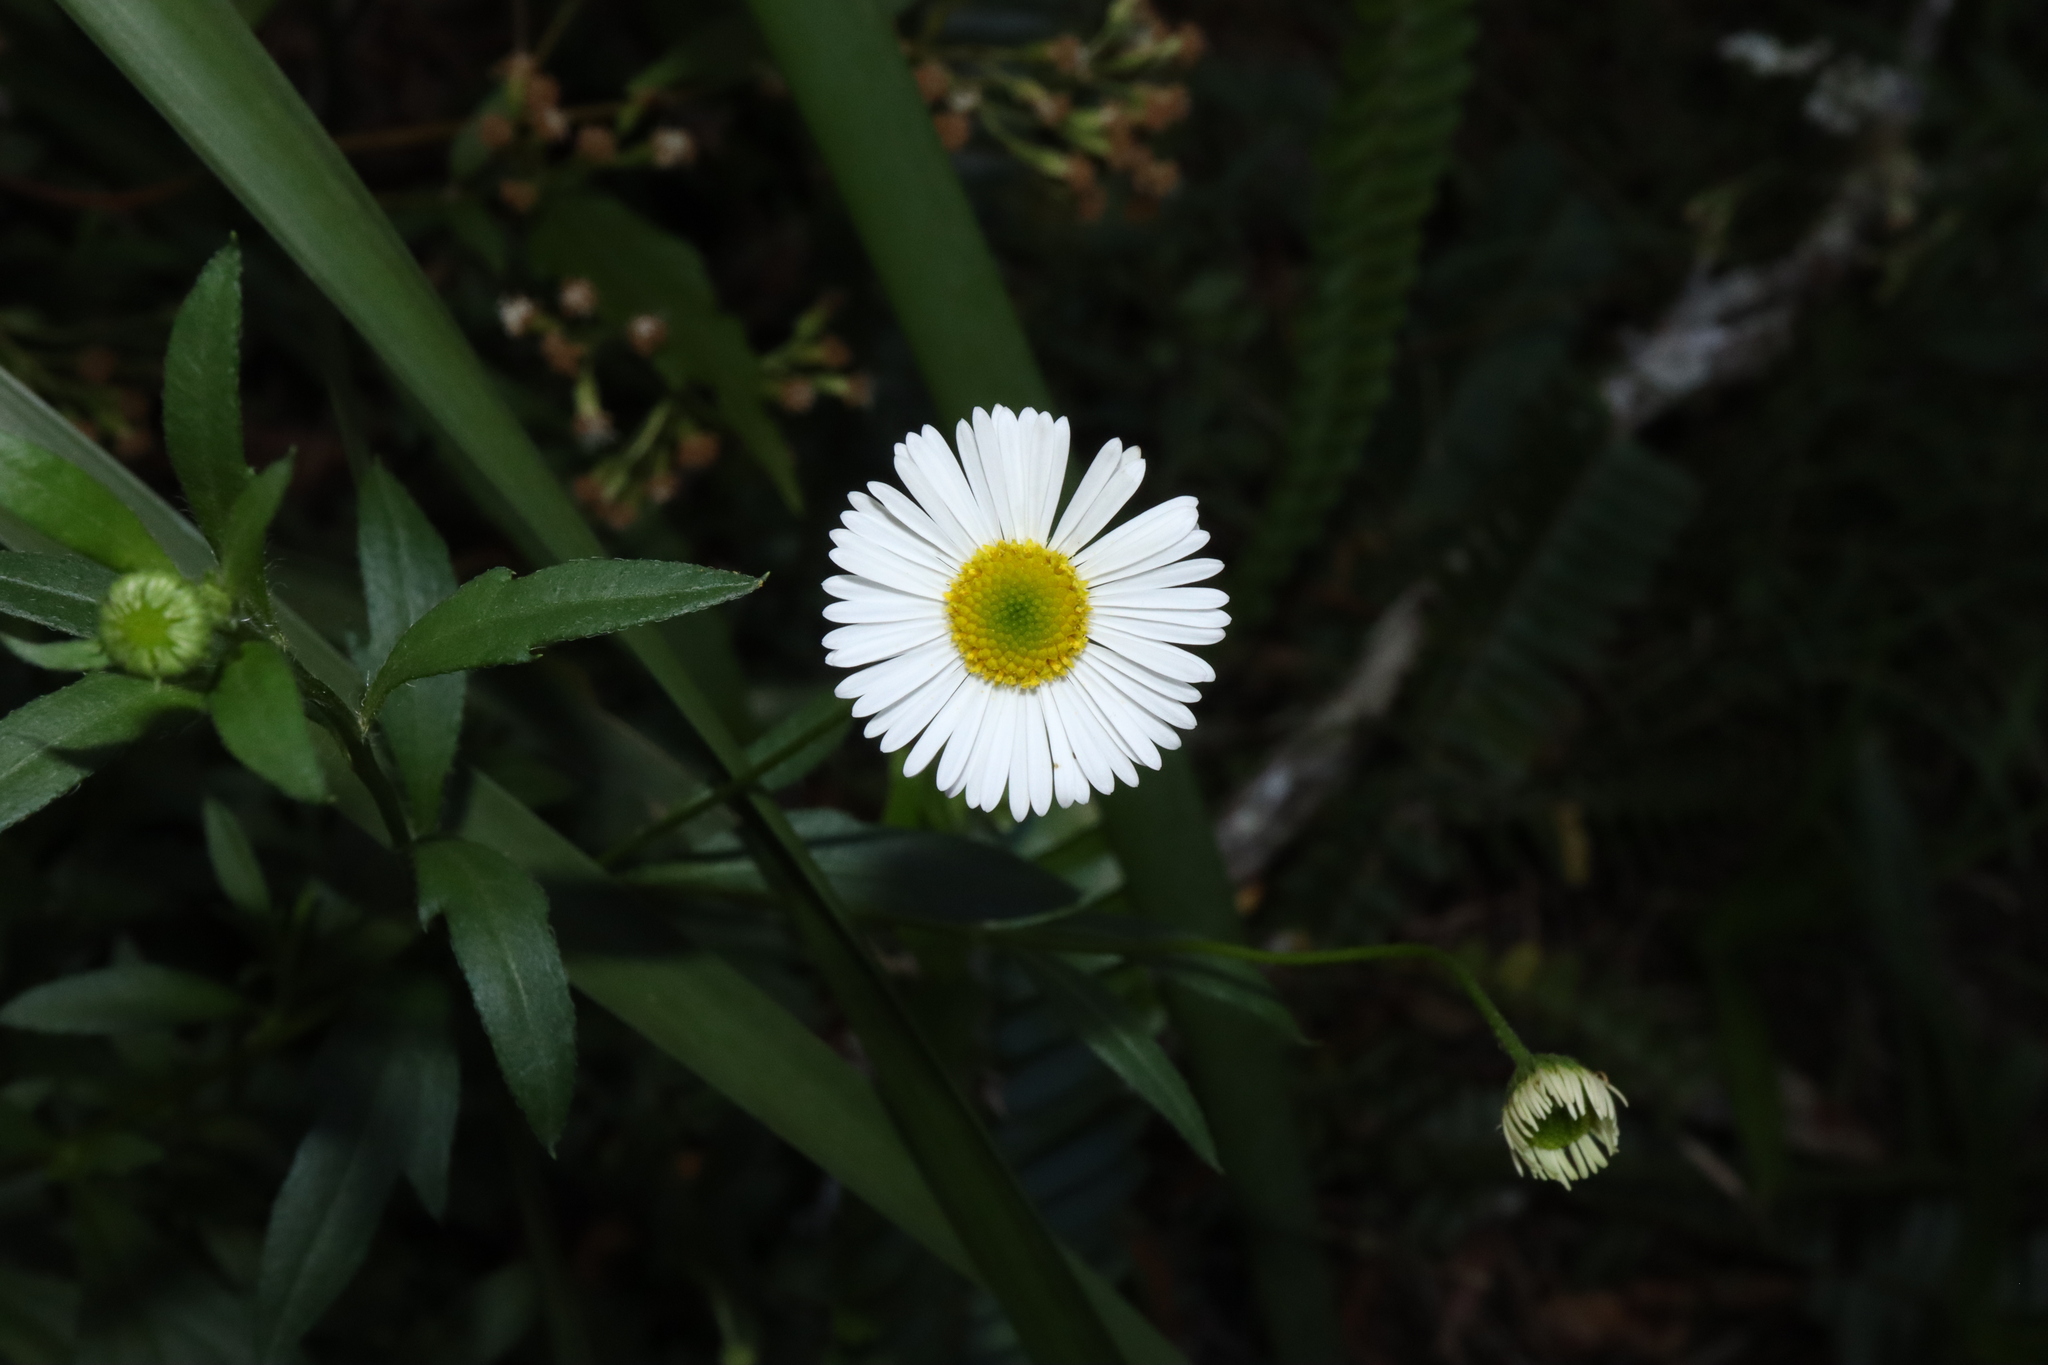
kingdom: Plantae
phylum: Tracheophyta
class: Magnoliopsida
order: Asterales
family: Asteraceae
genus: Erigeron
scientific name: Erigeron karvinskianus
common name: Mexican fleabane
